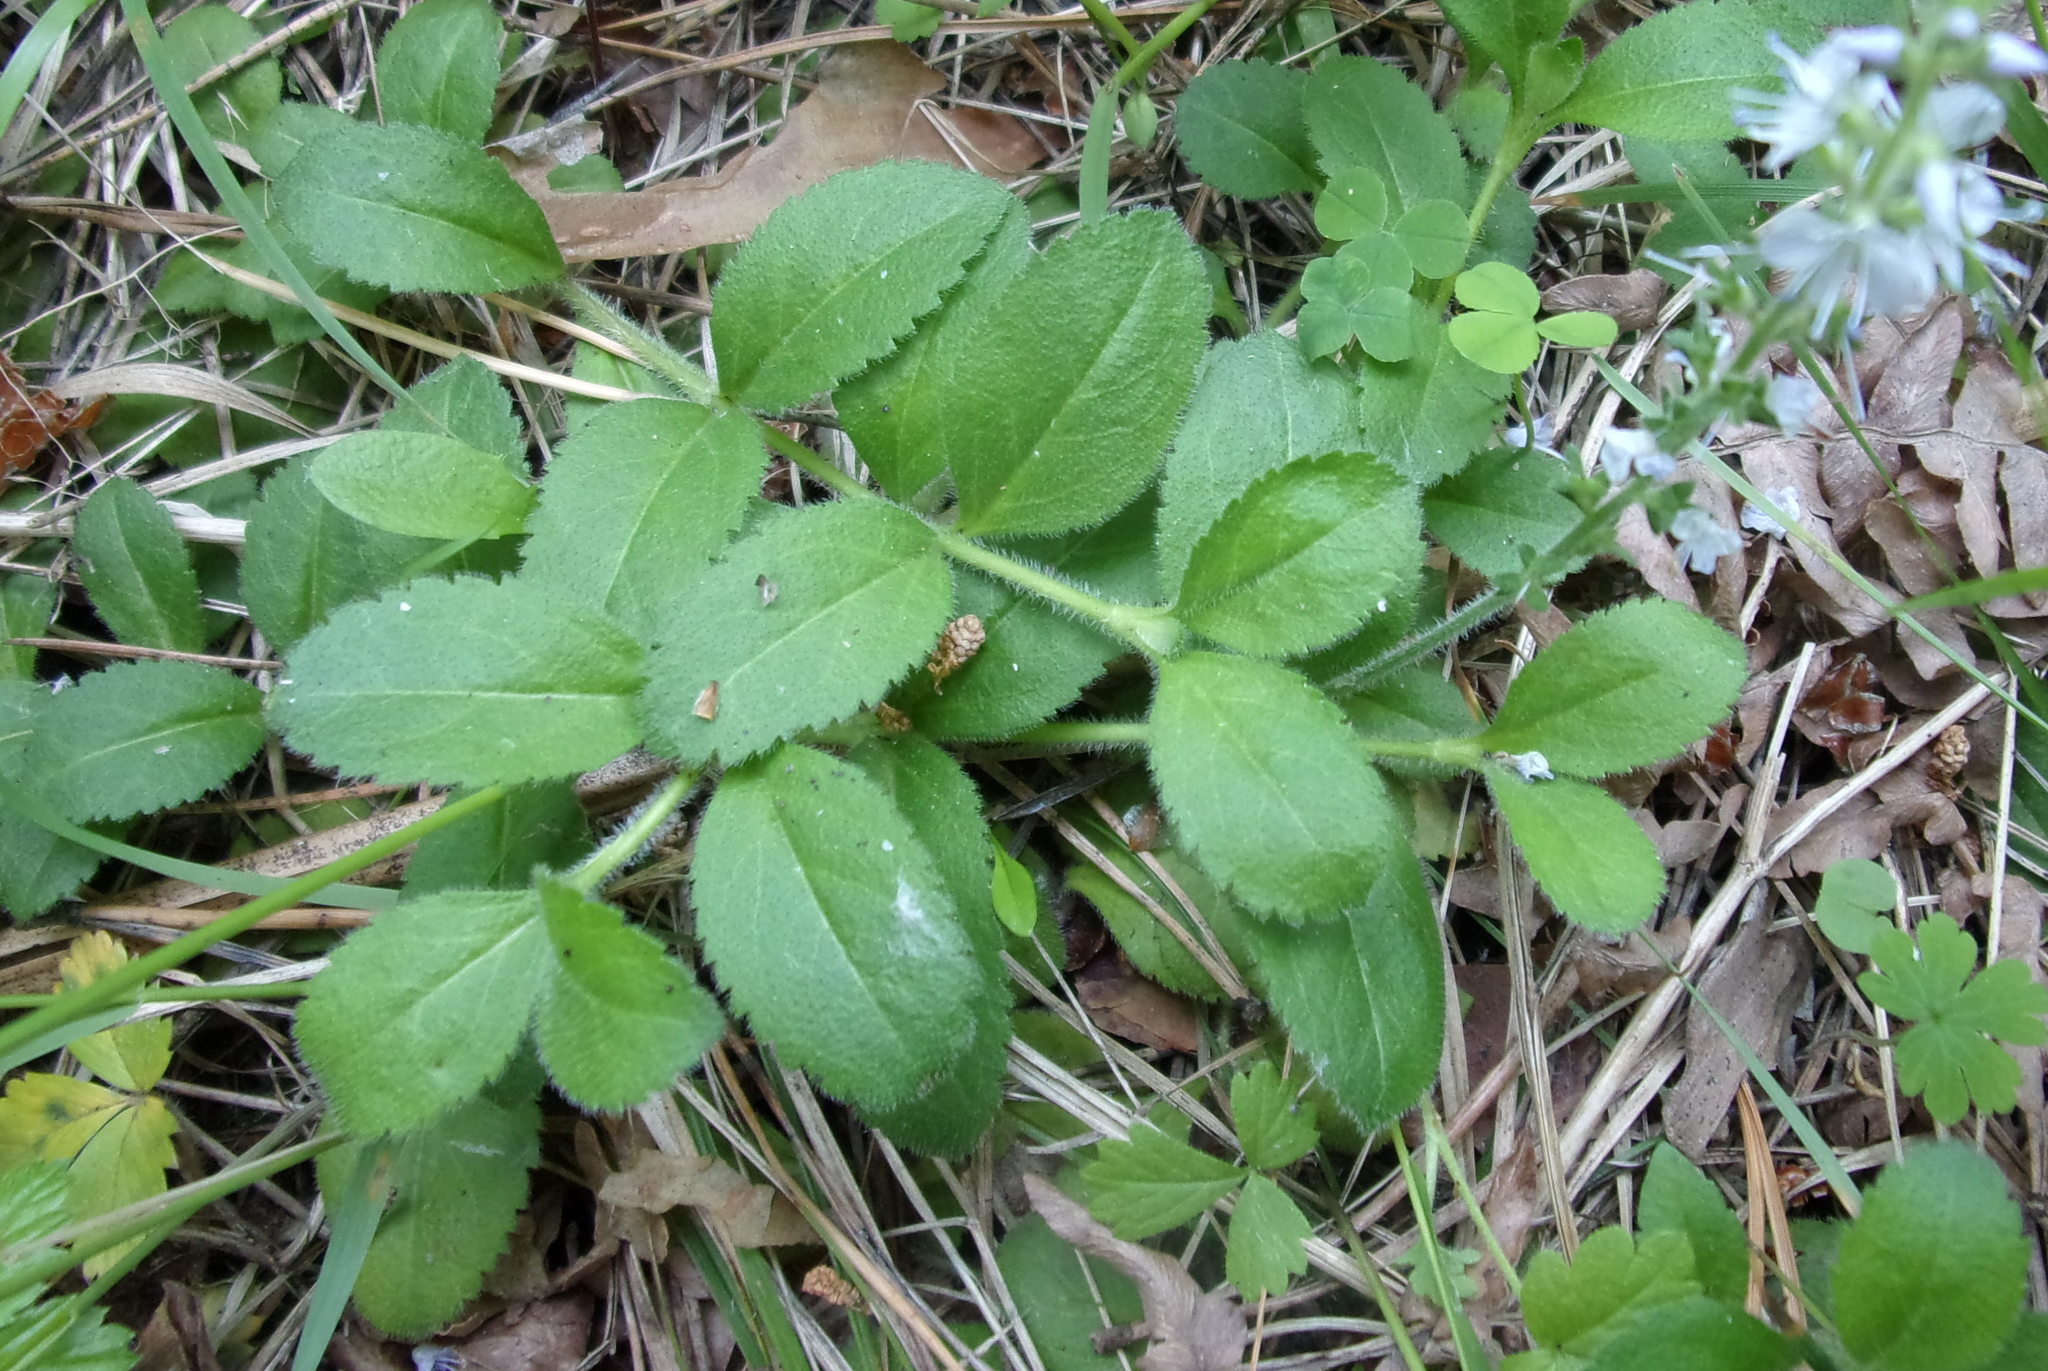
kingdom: Plantae
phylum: Tracheophyta
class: Magnoliopsida
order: Lamiales
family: Plantaginaceae
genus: Veronica
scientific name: Veronica officinalis
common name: Common speedwell
